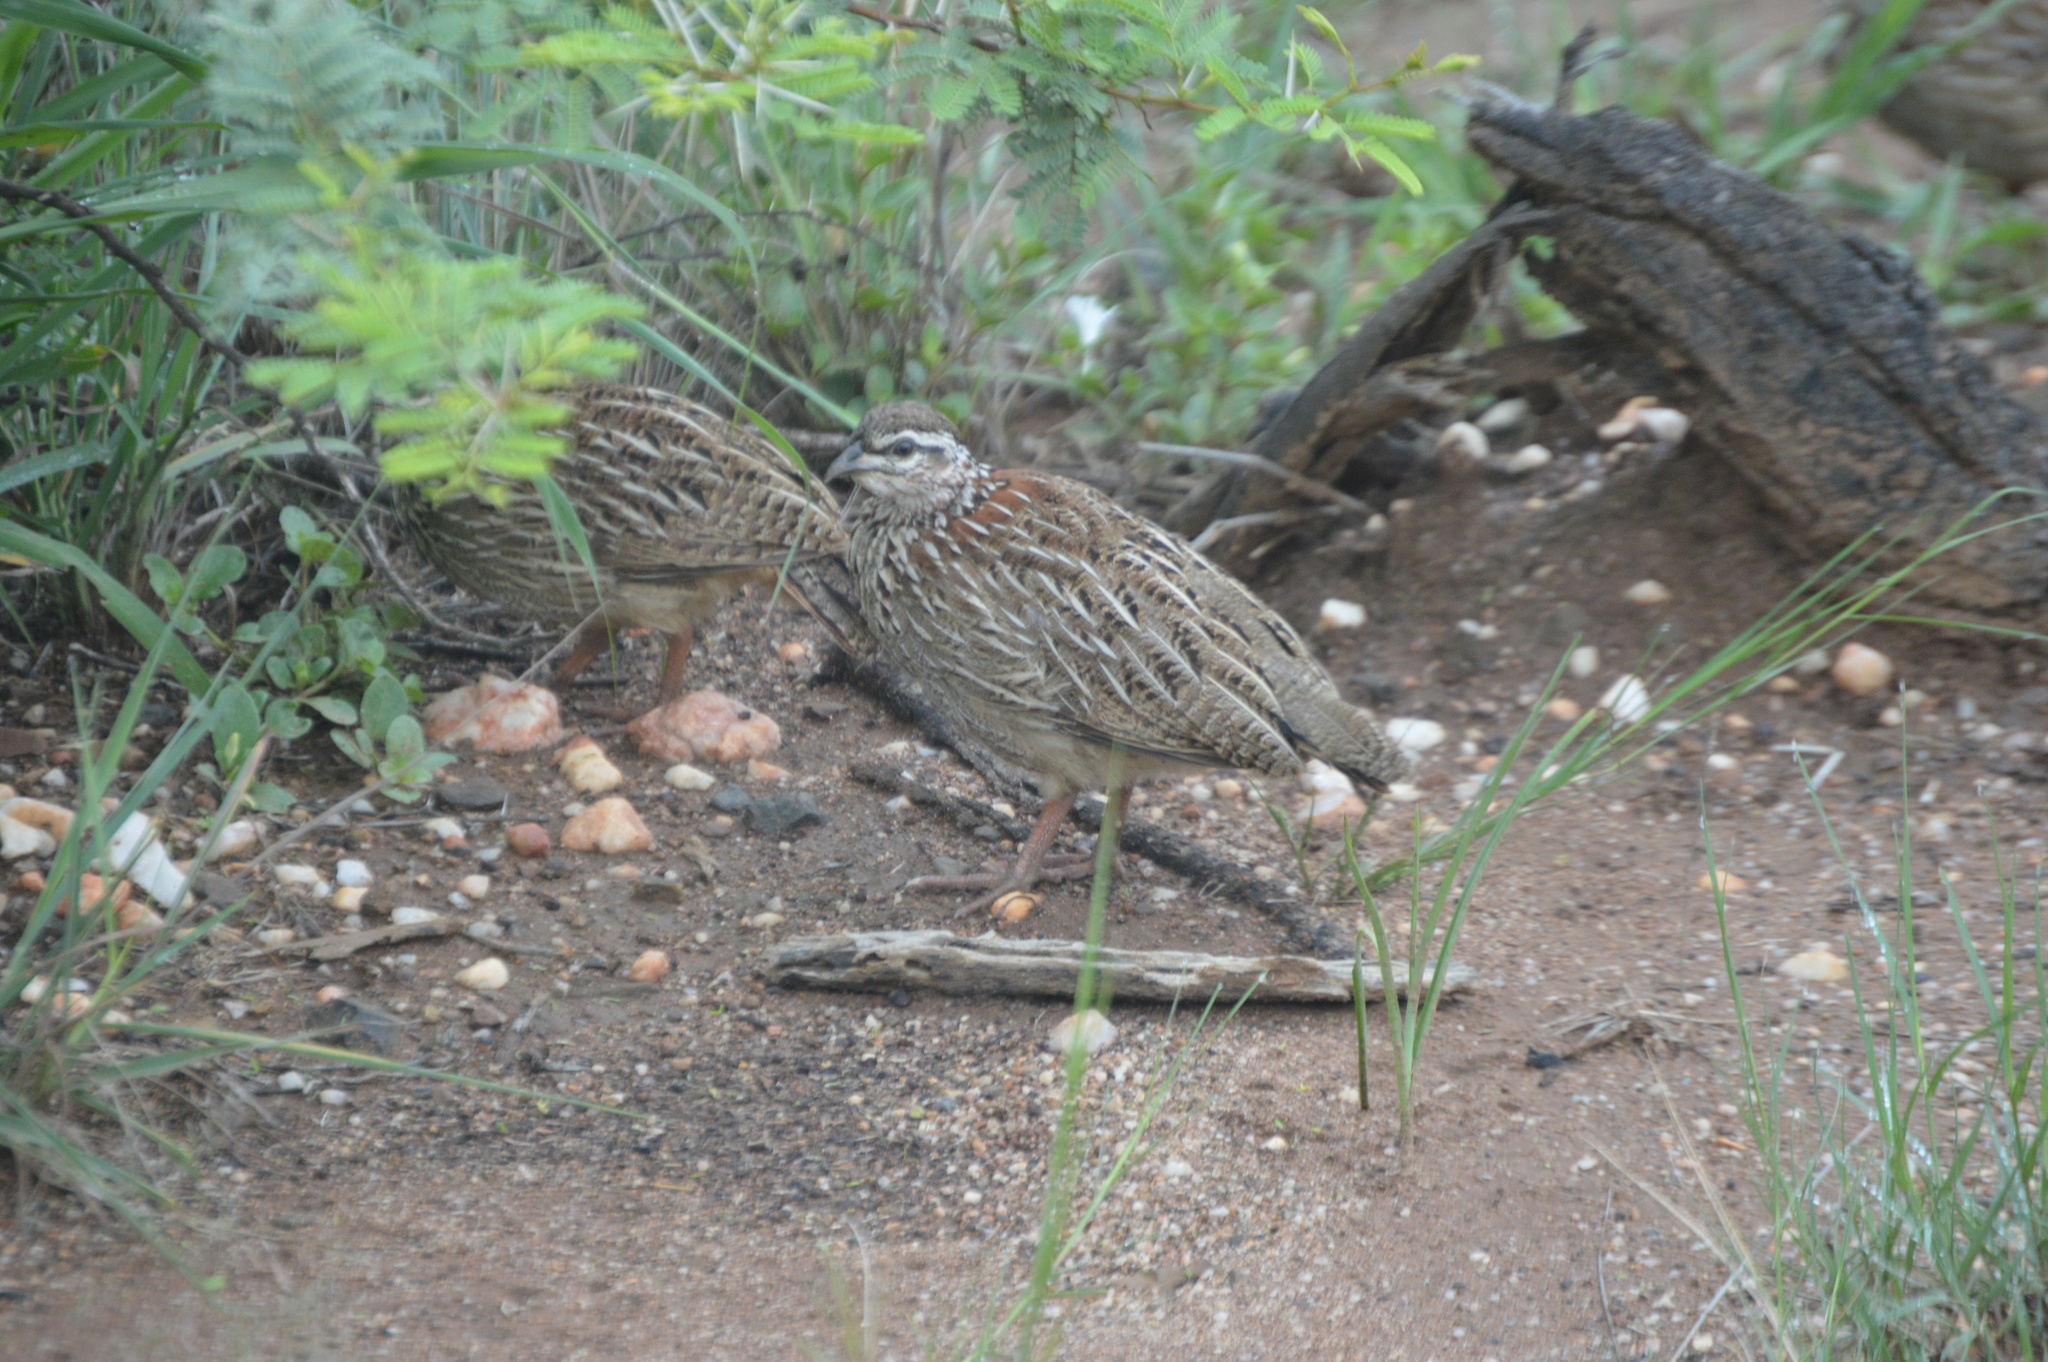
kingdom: Animalia
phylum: Chordata
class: Aves
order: Galliformes
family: Phasianidae
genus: Ortygornis
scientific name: Ortygornis sephaena
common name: Crested francolin
